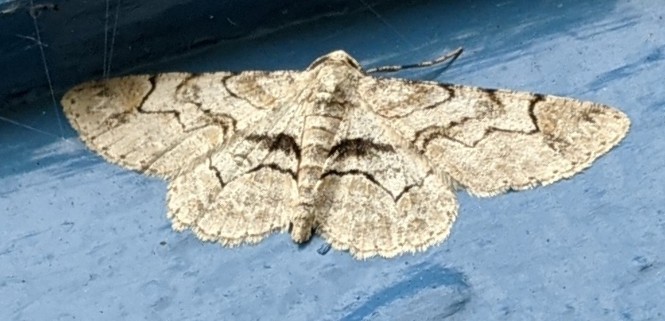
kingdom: Animalia
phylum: Arthropoda
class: Insecta
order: Lepidoptera
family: Geometridae
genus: Iridopsis
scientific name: Iridopsis larvaria
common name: Bent-line gray
